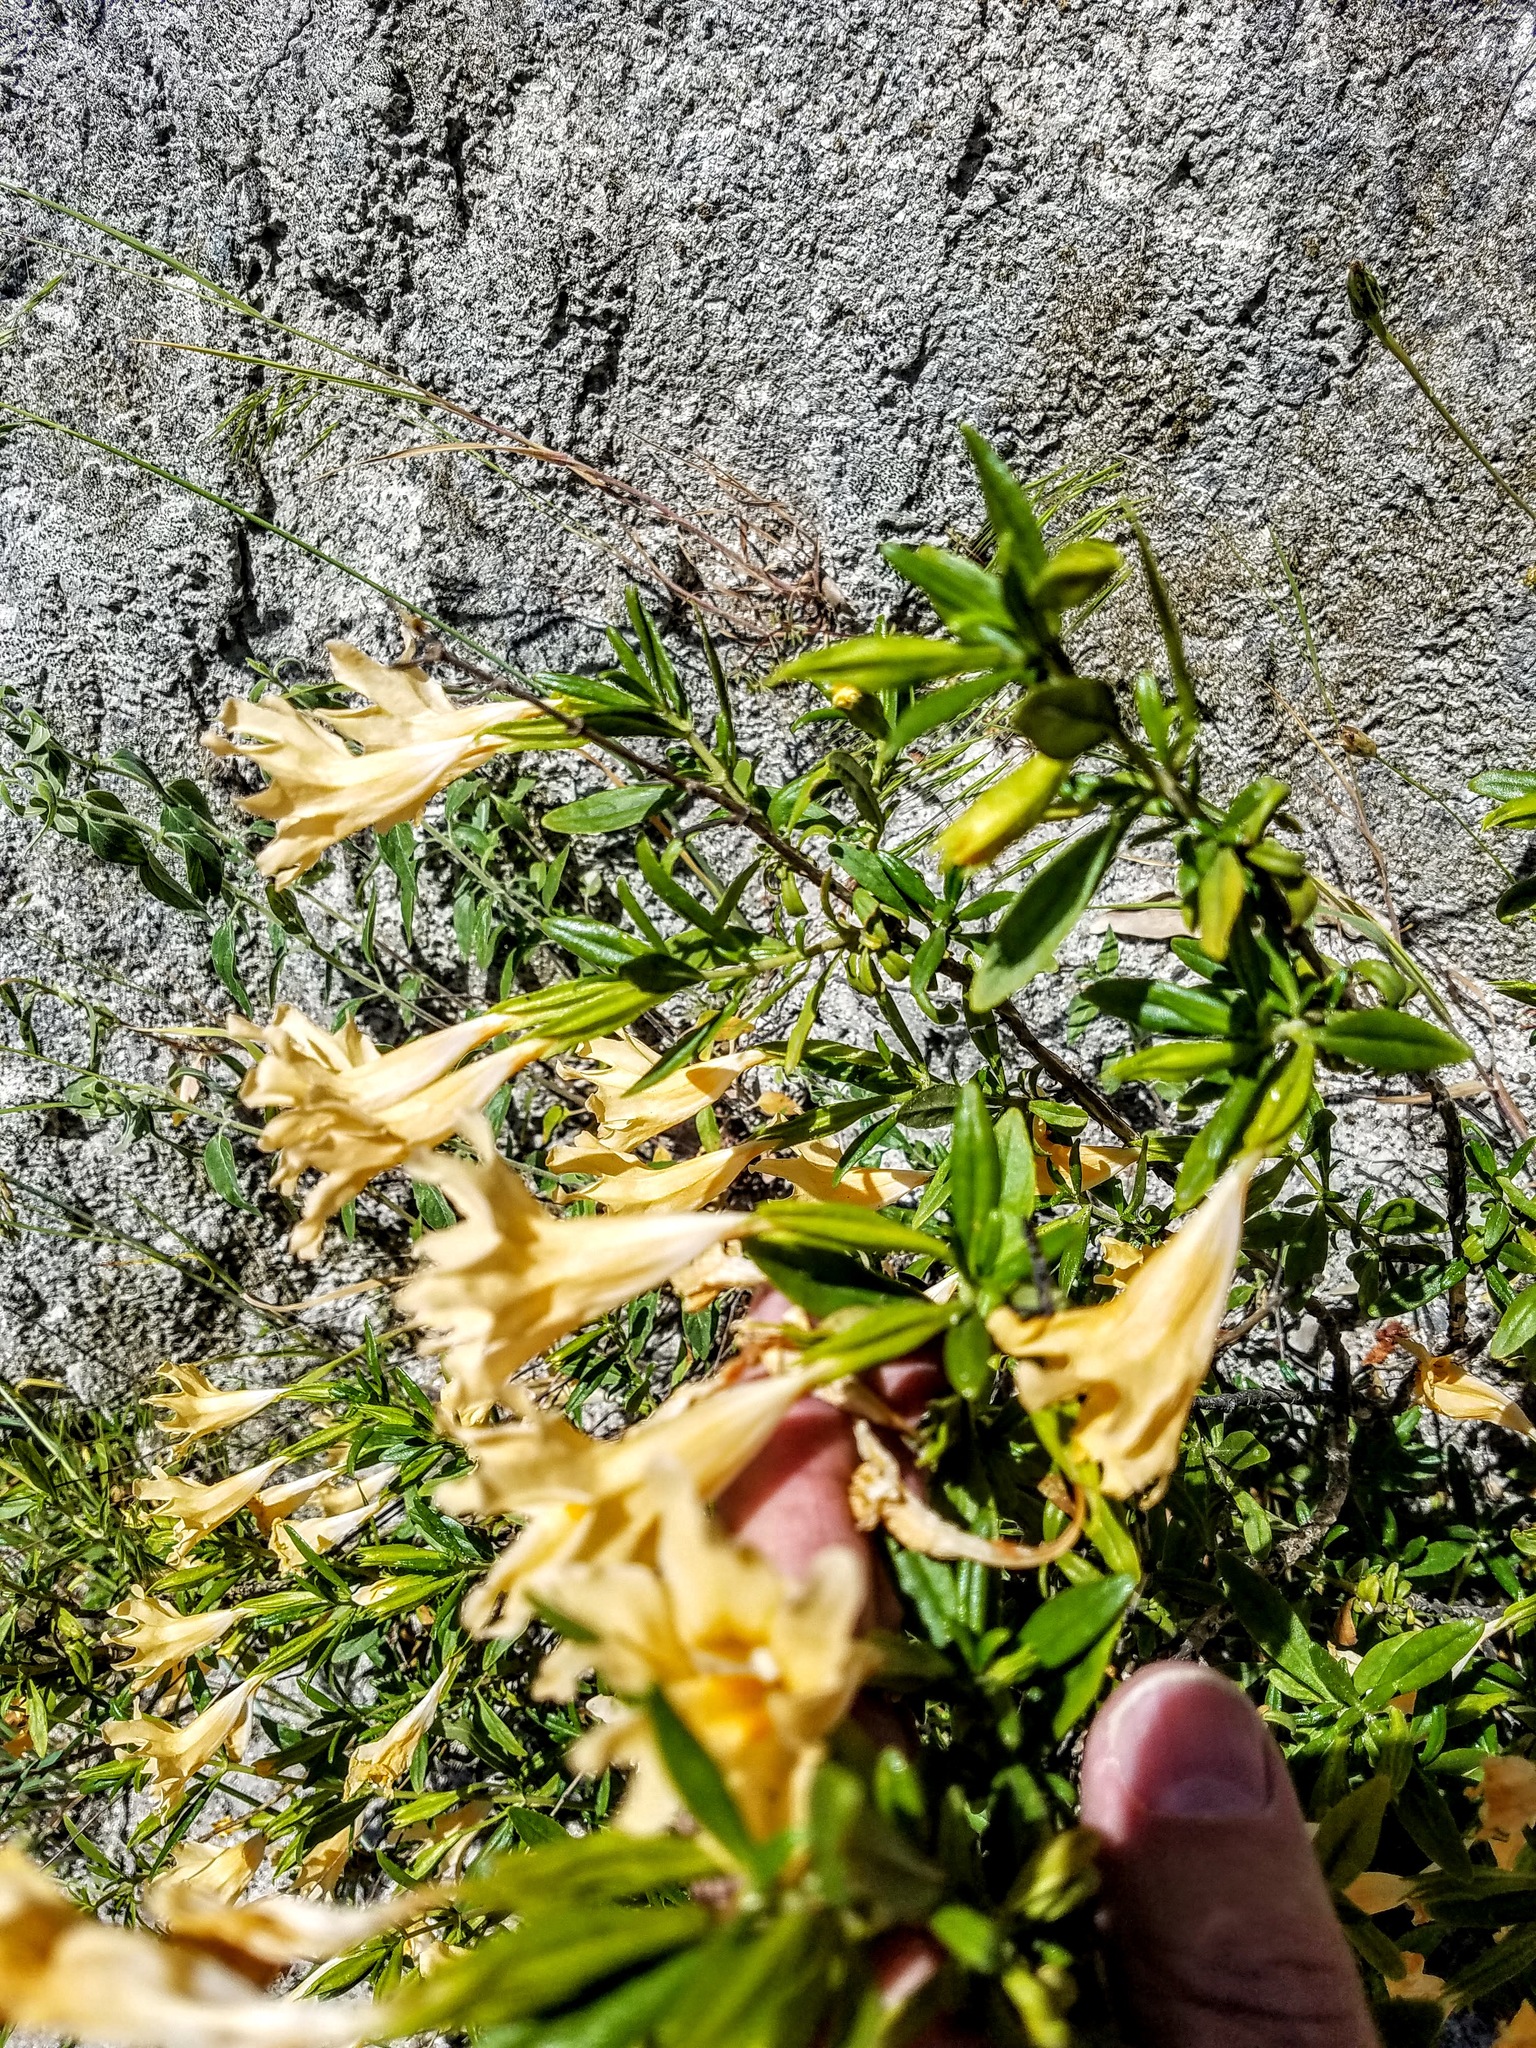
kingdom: Plantae
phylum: Tracheophyta
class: Magnoliopsida
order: Lamiales
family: Phrymaceae
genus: Diplacus
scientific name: Diplacus grandiflorus
